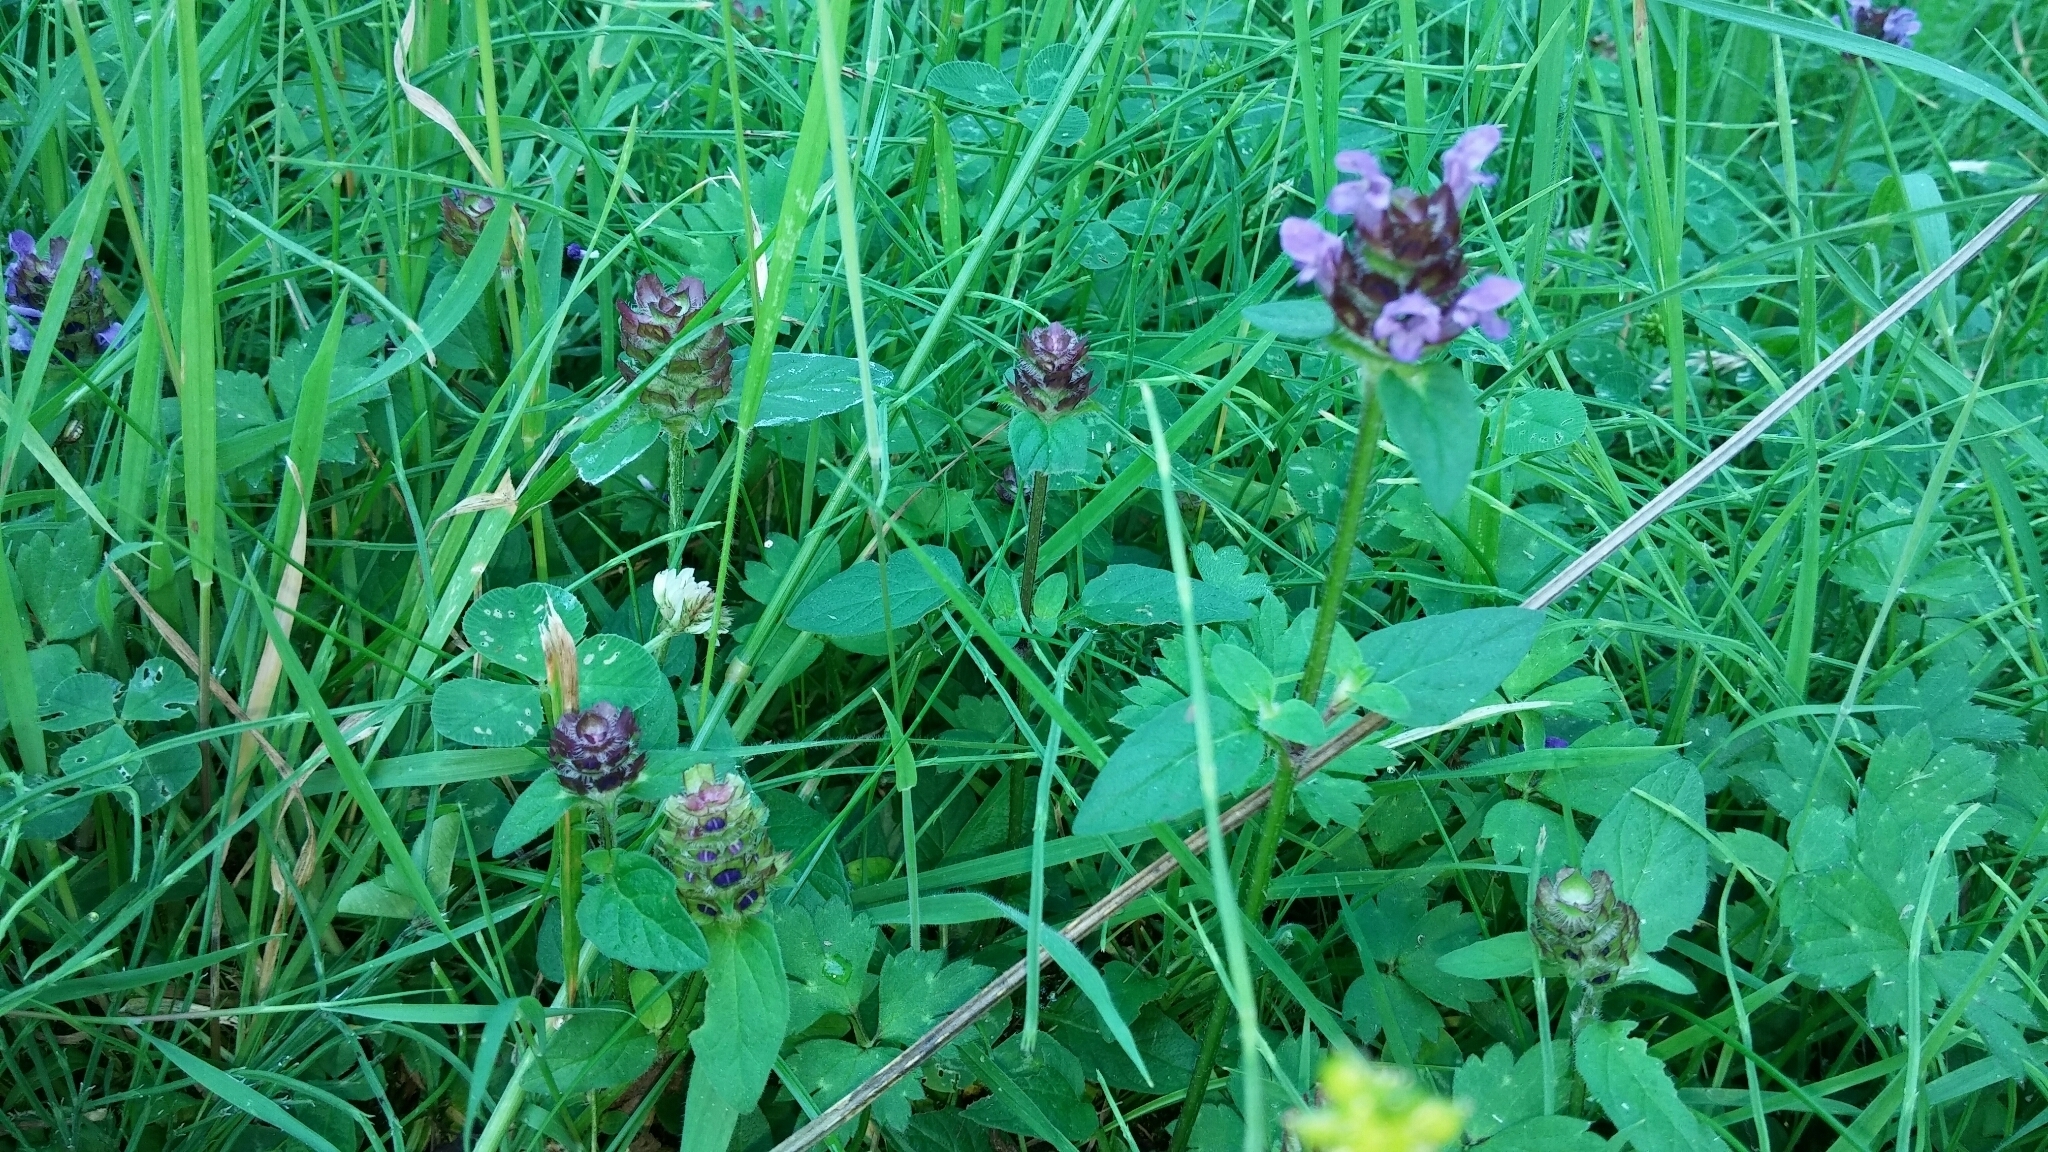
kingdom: Plantae
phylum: Tracheophyta
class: Magnoliopsida
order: Lamiales
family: Lamiaceae
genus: Prunella
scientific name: Prunella vulgaris
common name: Heal-all
